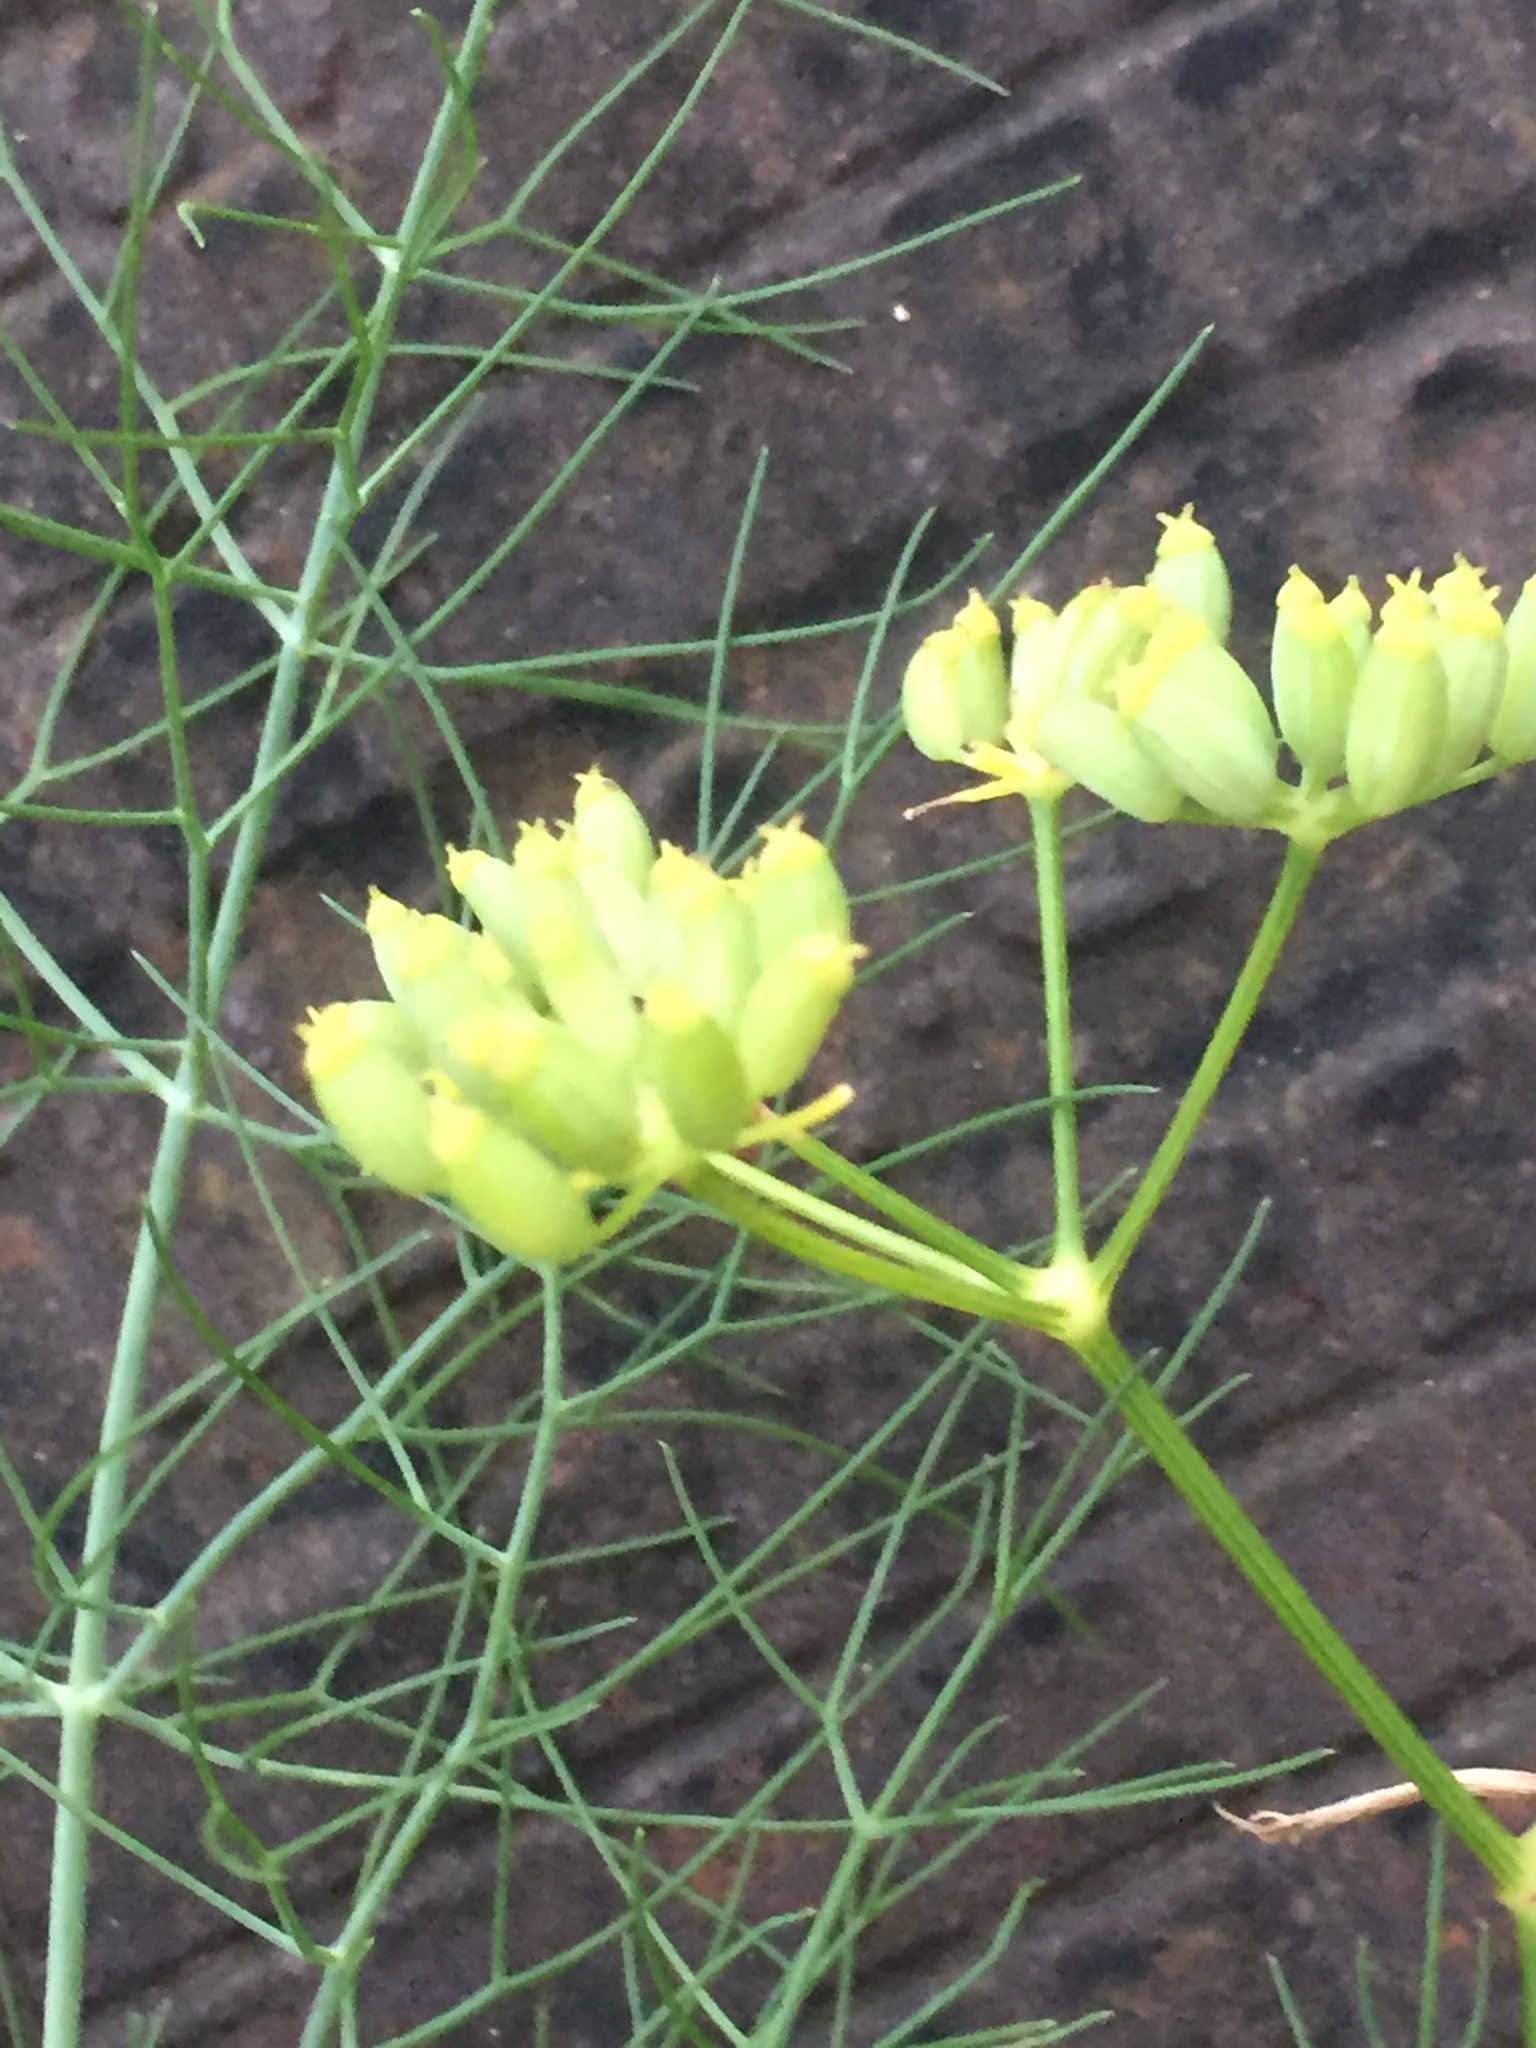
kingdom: Plantae
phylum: Tracheophyta
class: Magnoliopsida
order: Apiales
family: Apiaceae
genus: Foeniculum
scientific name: Foeniculum vulgare
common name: Fennel
